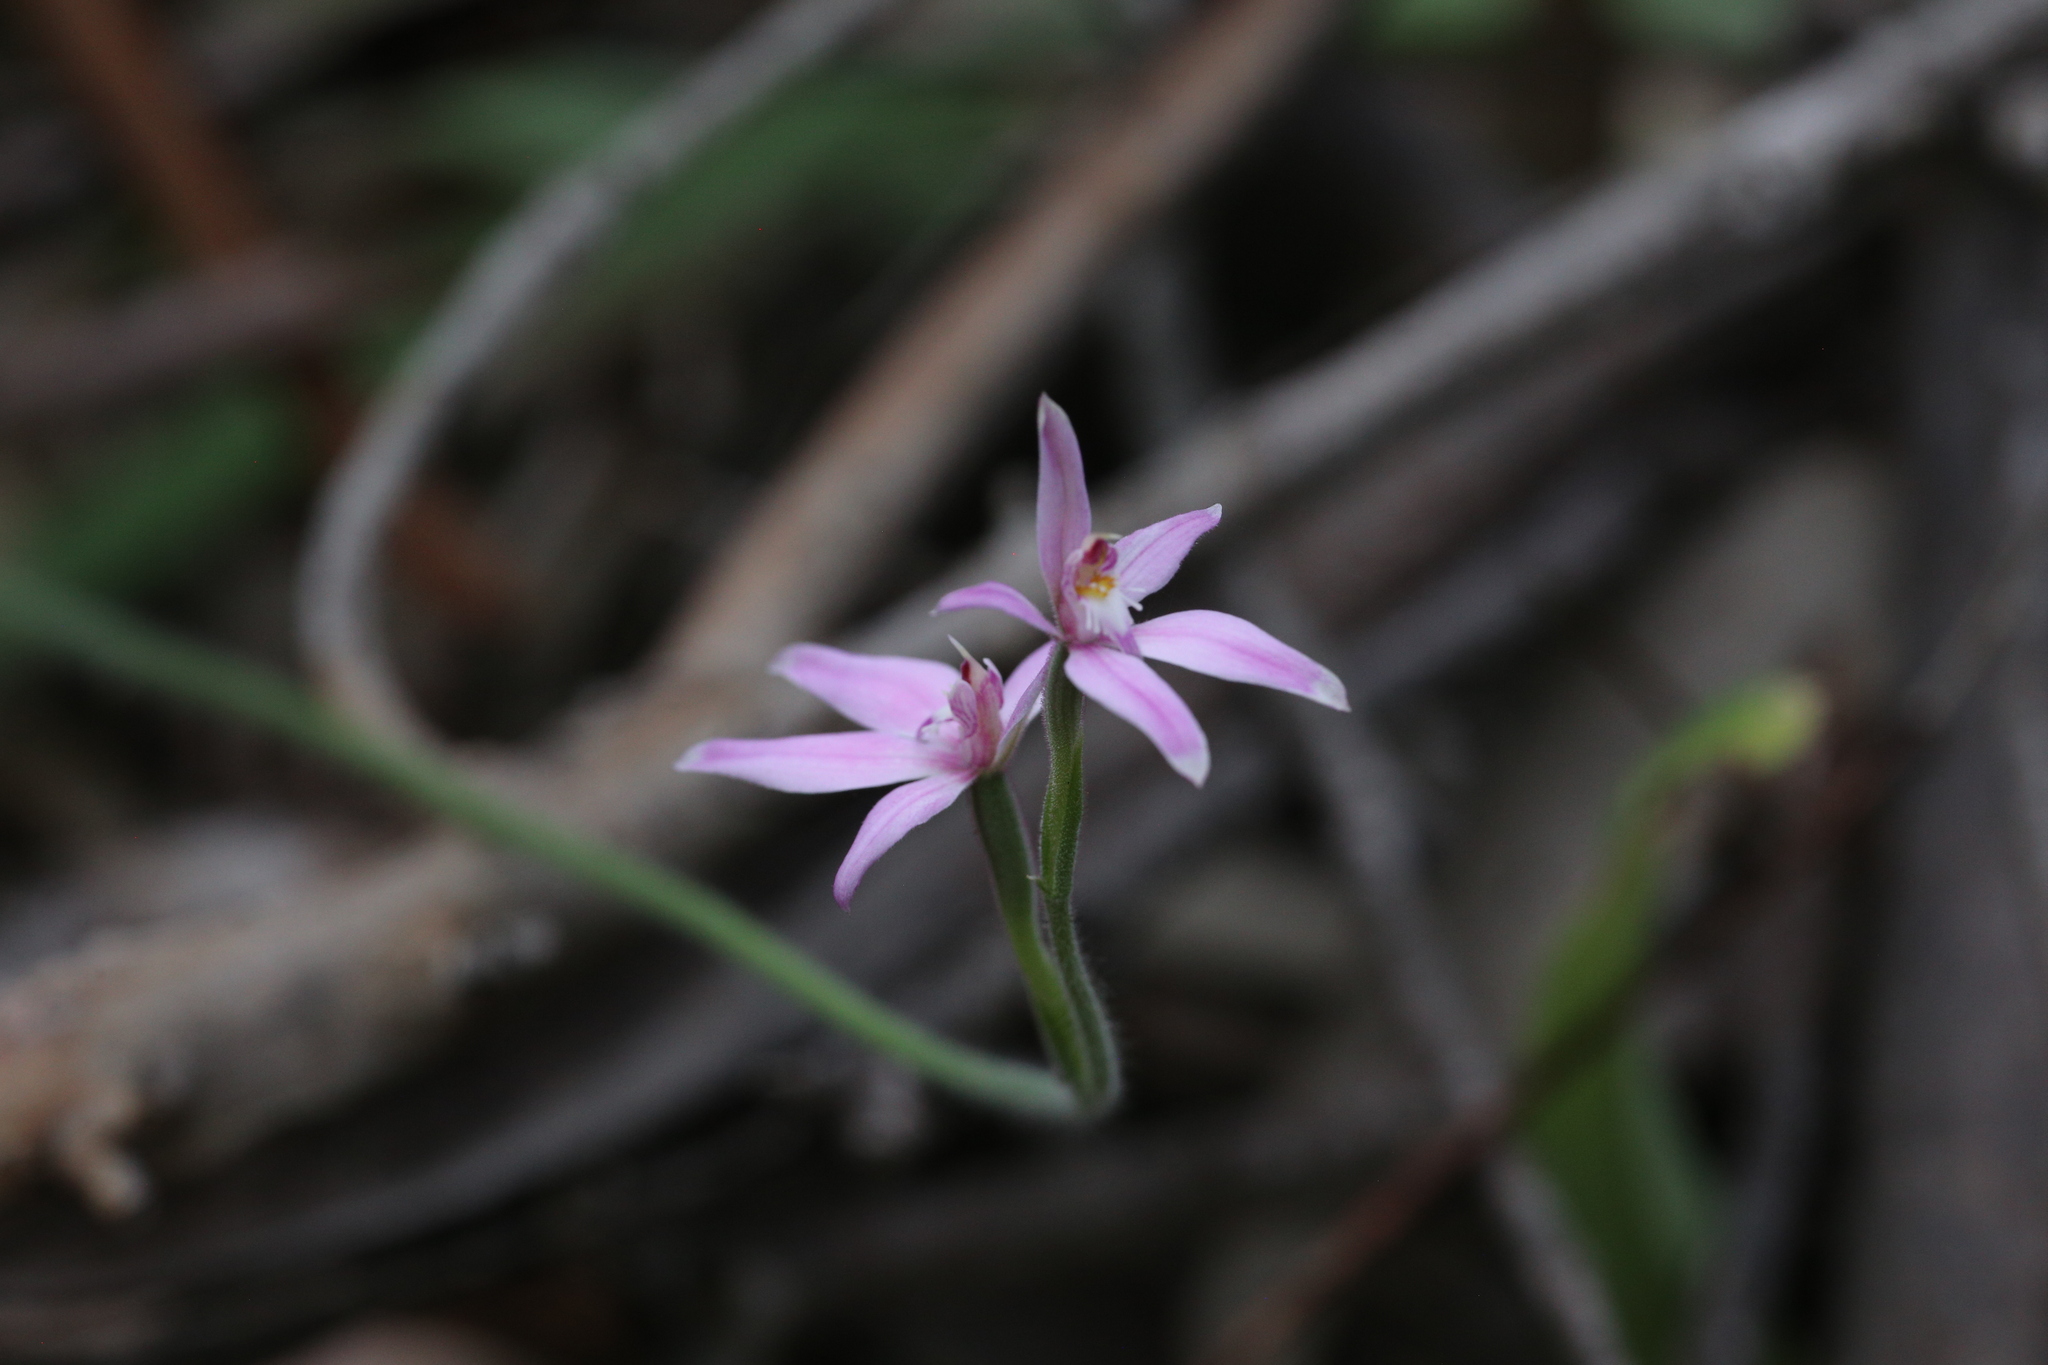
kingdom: Plantae
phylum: Tracheophyta
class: Liliopsida
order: Asparagales
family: Orchidaceae
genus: Caladenia
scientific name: Caladenia latifolia
